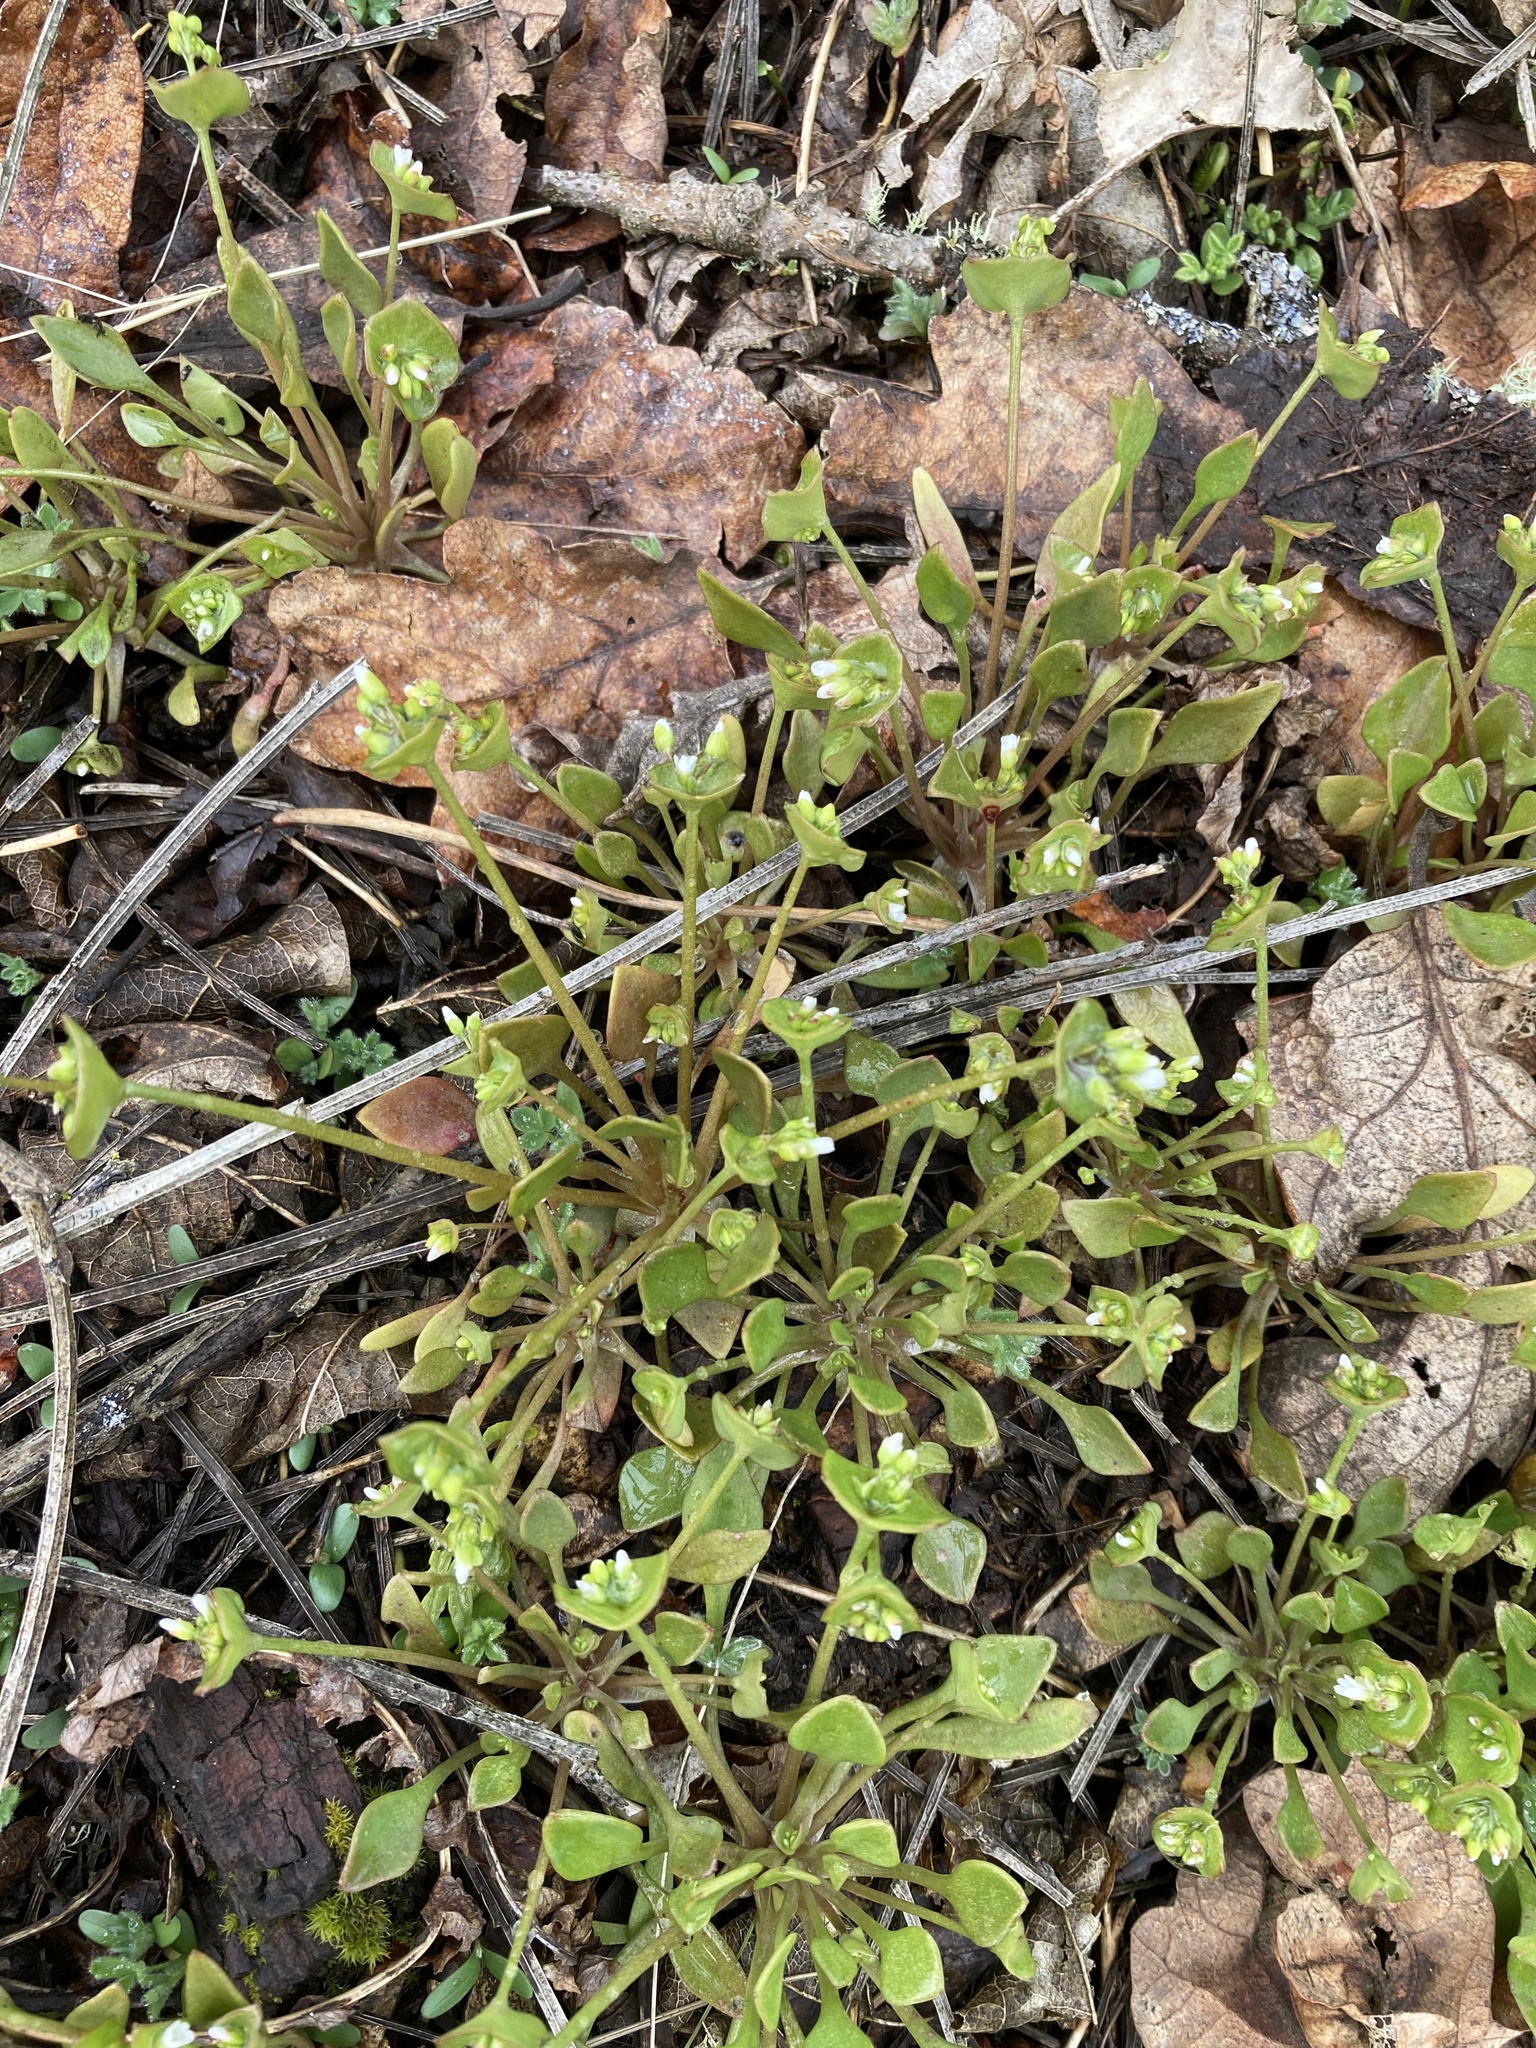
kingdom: Plantae
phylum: Tracheophyta
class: Magnoliopsida
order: Caryophyllales
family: Montiaceae
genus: Claytonia
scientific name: Claytonia rubra
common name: Erubescent miner's-lettuce
